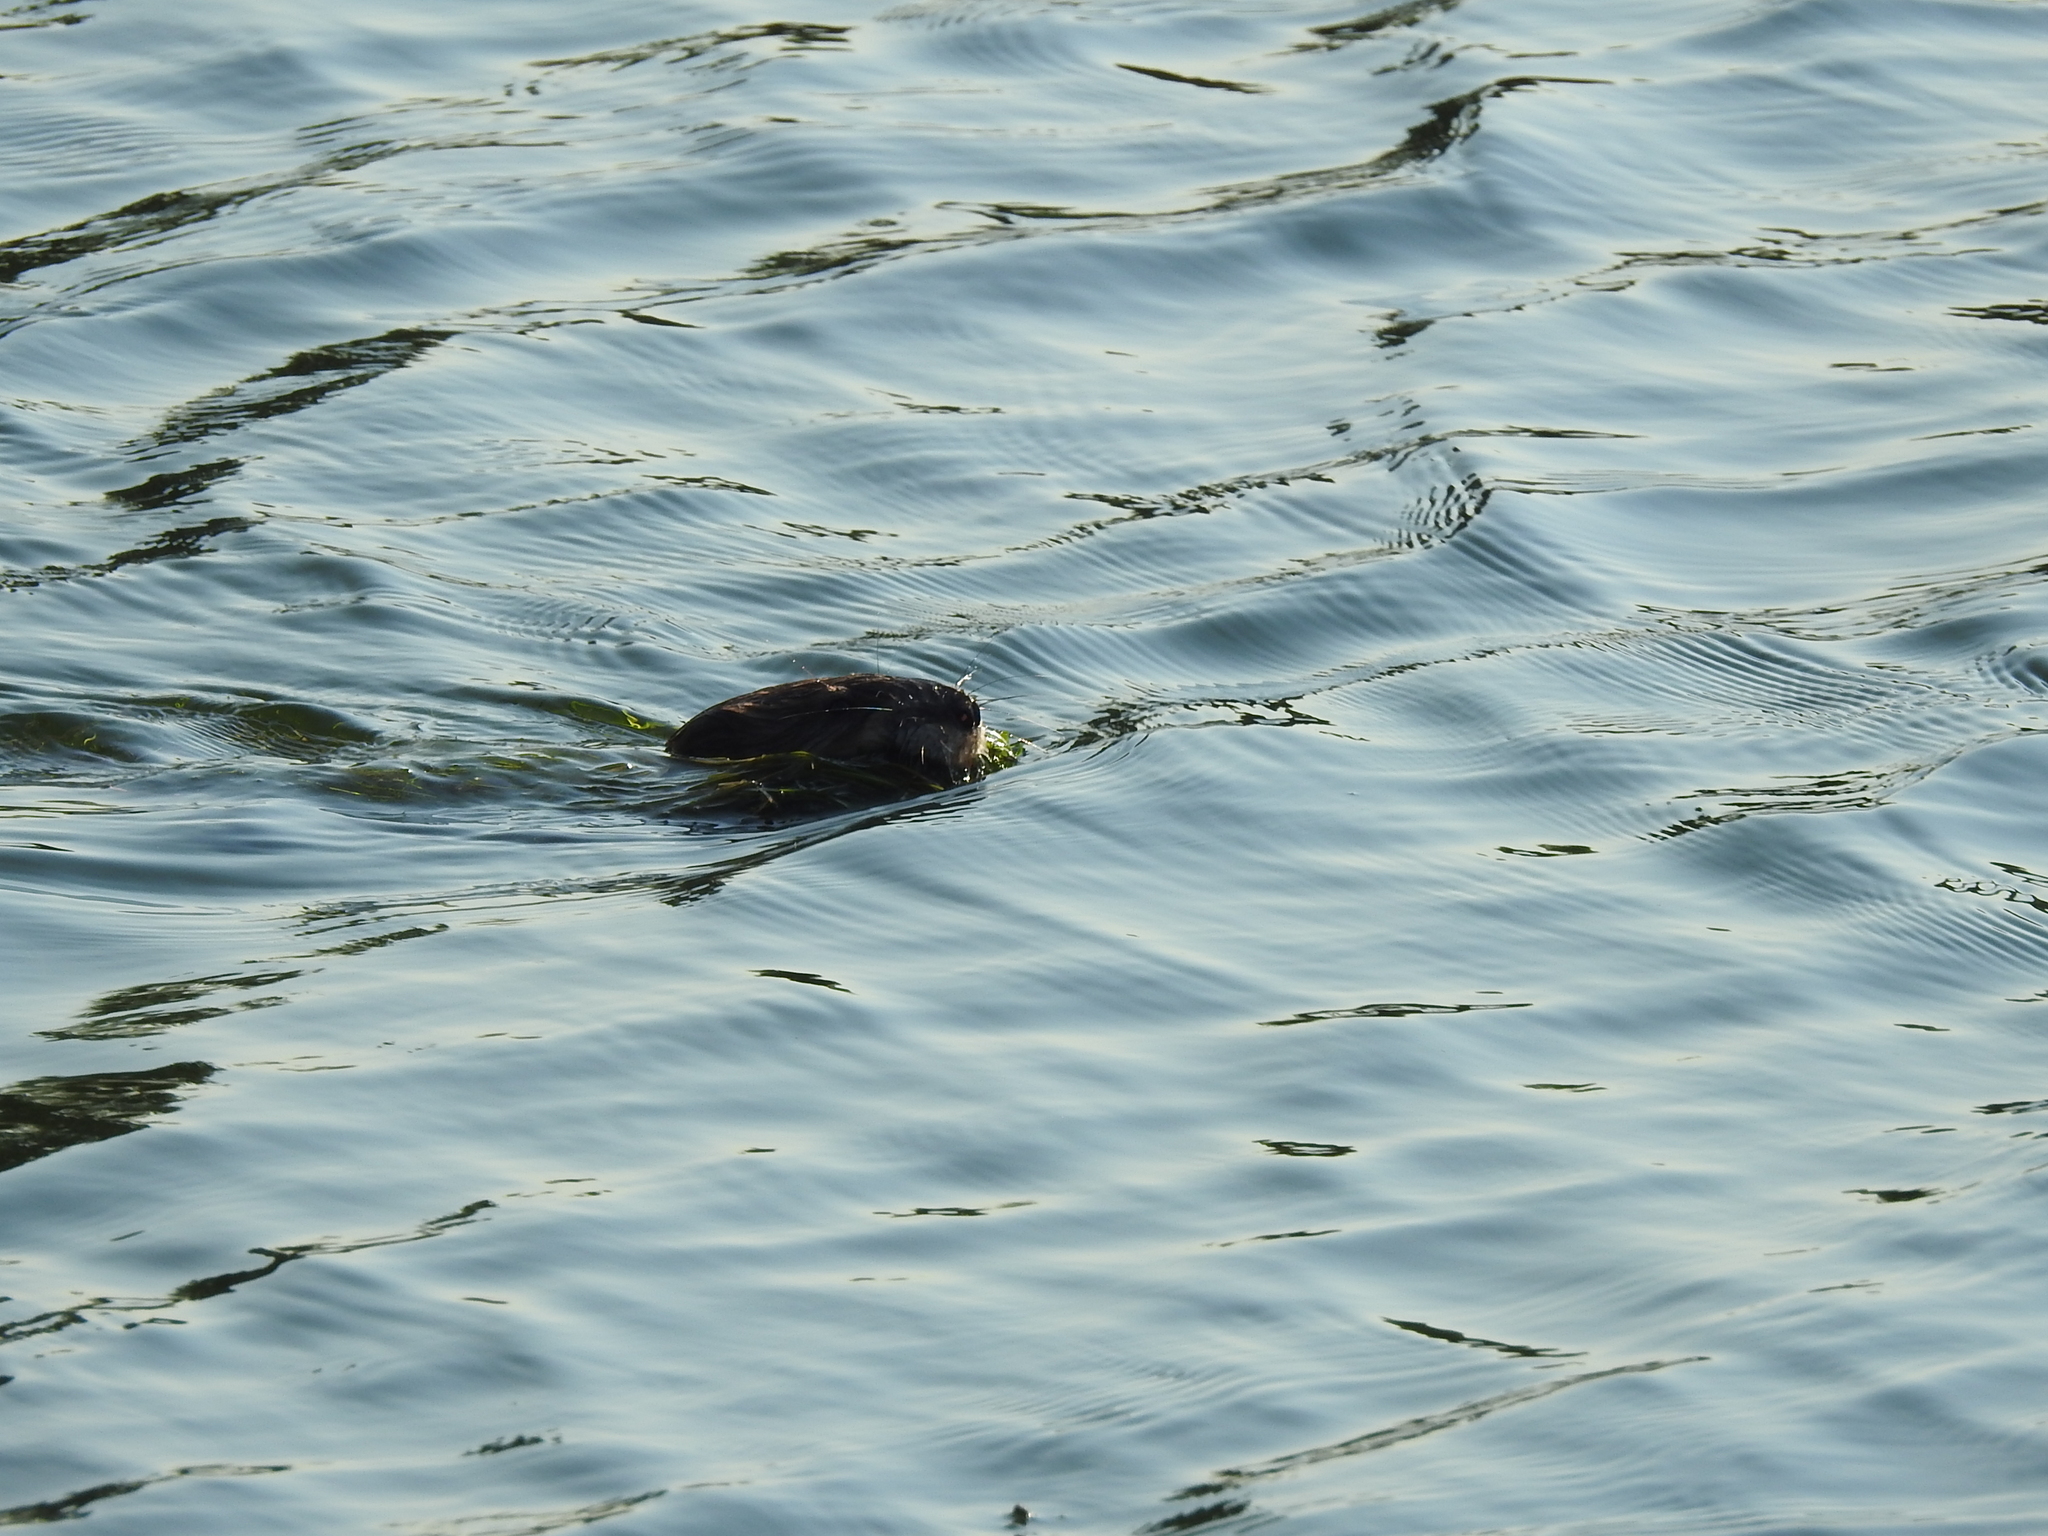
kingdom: Animalia
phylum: Chordata
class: Mammalia
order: Rodentia
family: Cricetidae
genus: Ondatra
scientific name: Ondatra zibethicus
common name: Muskrat
